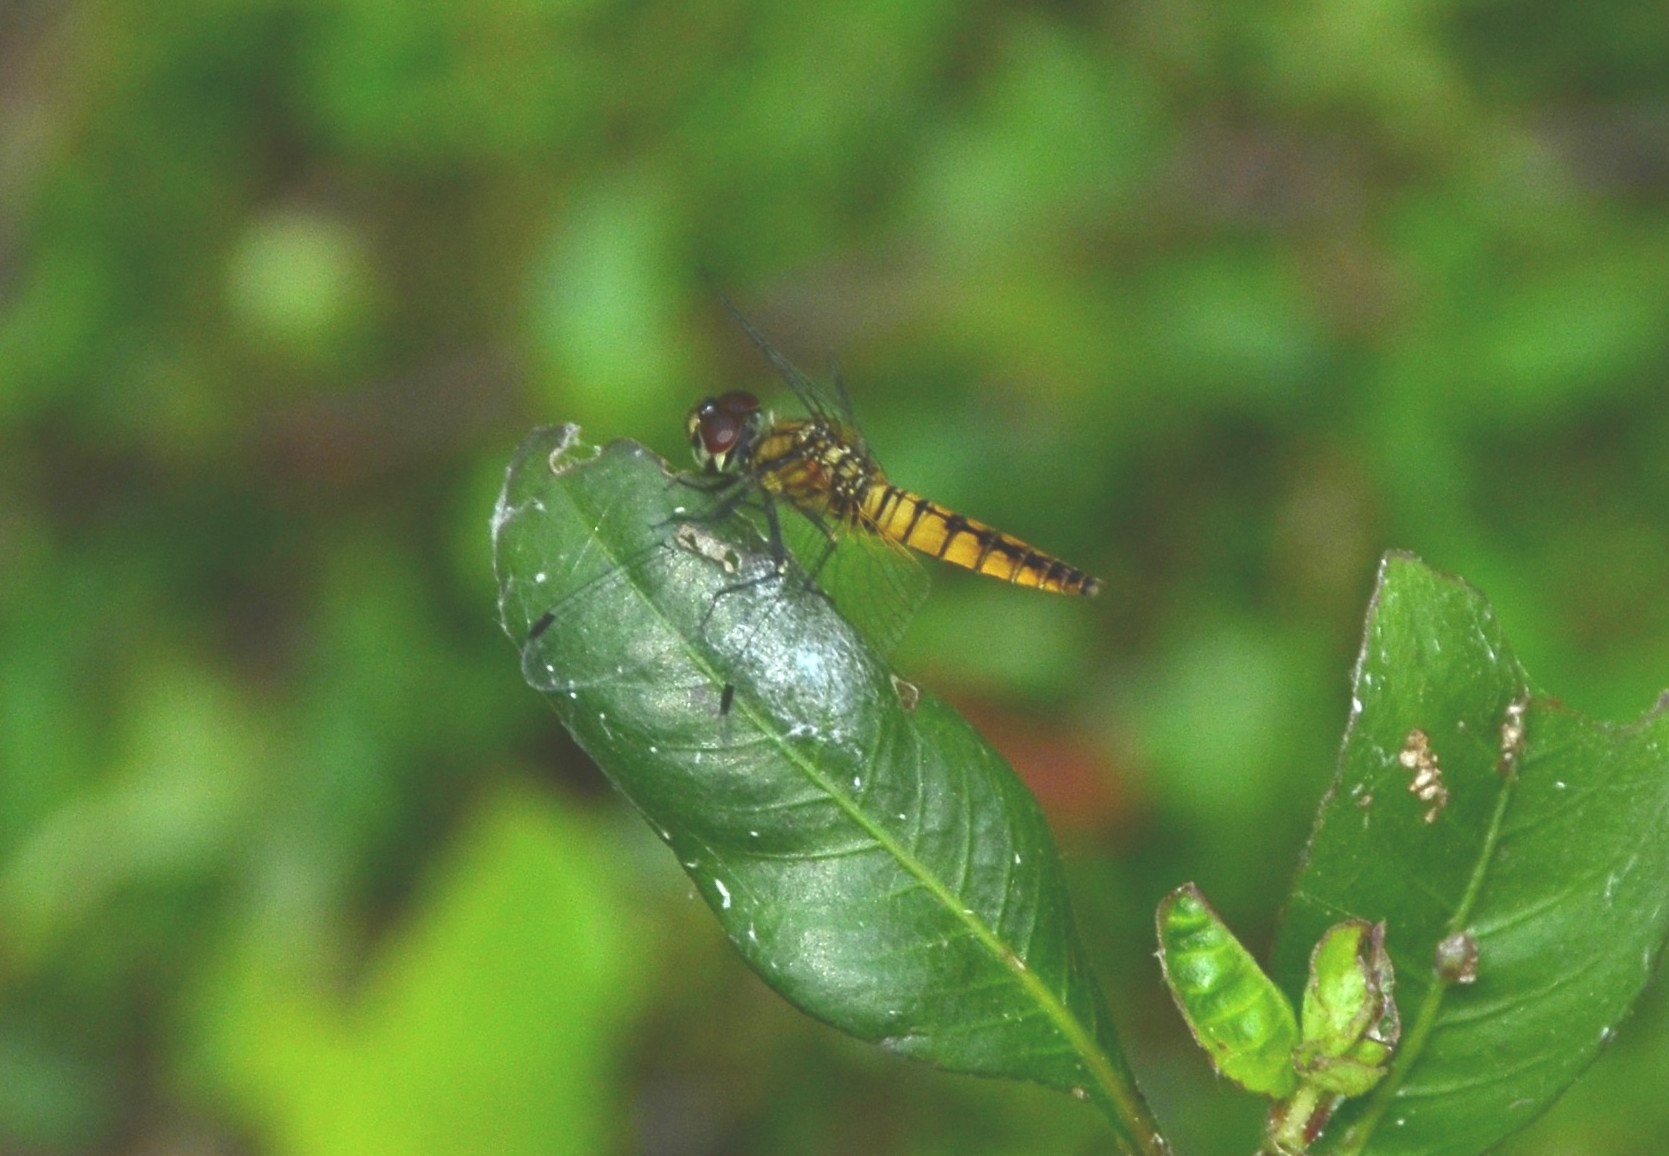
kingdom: Animalia
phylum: Arthropoda
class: Insecta
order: Odonata
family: Libellulidae
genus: Aethriamanta
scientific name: Aethriamanta brevipennis
